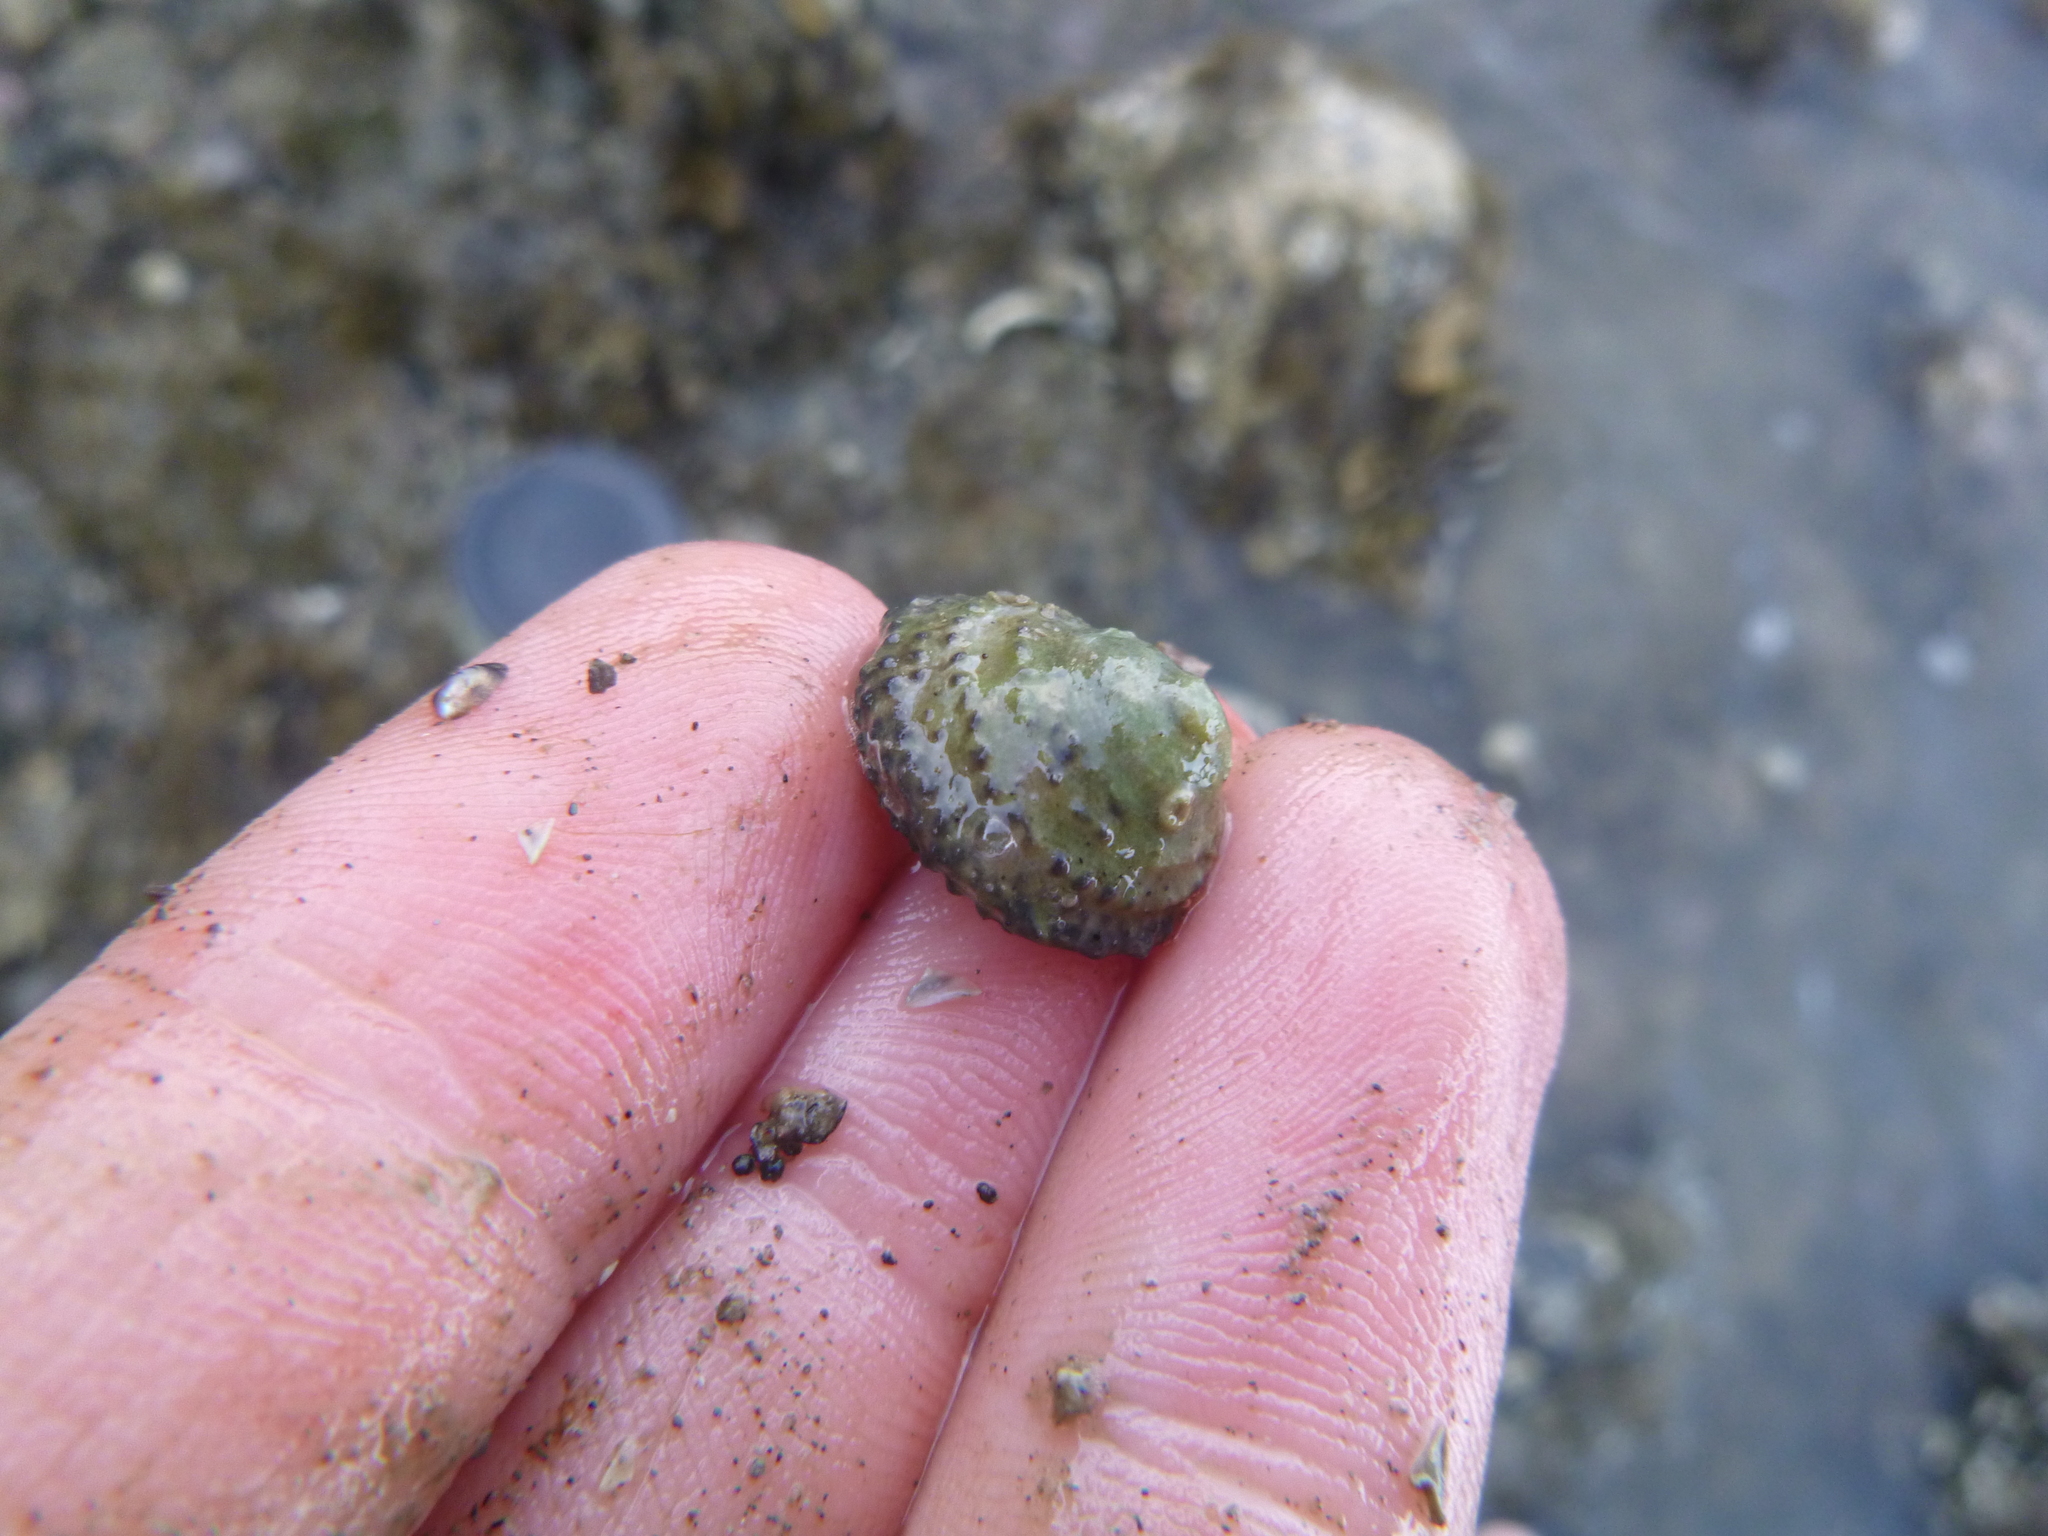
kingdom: Animalia
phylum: Mollusca
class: Gastropoda
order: Trochida
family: Trochidae
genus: Diloma
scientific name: Diloma bicanaliculatum
